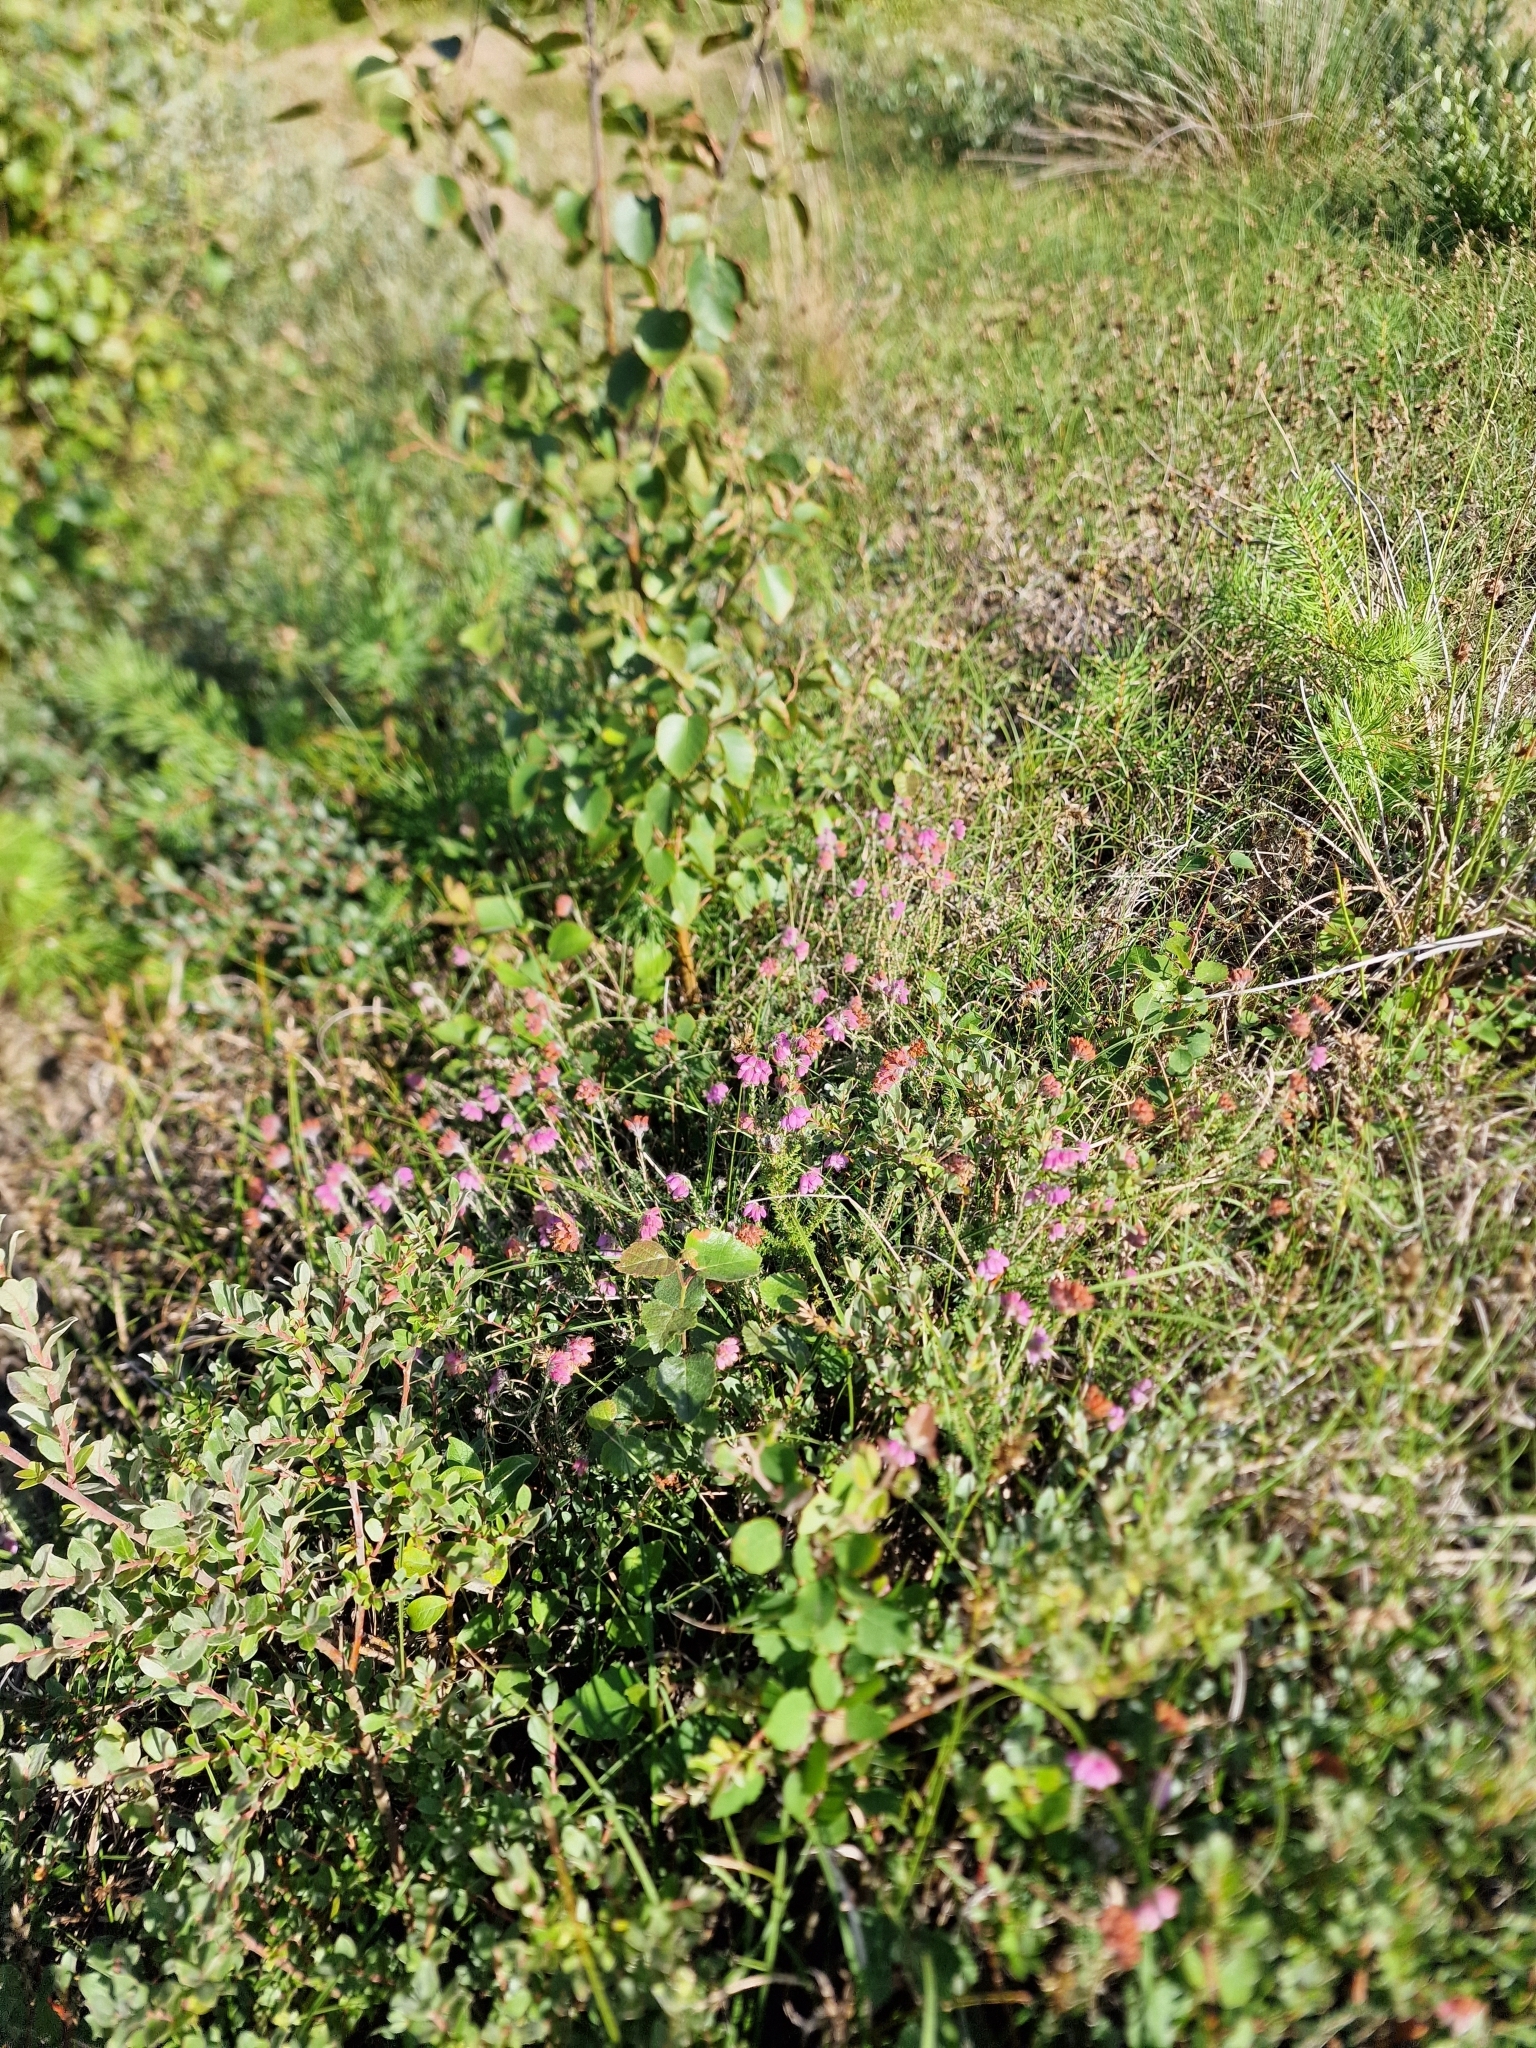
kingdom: Plantae
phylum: Tracheophyta
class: Magnoliopsida
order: Ericales
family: Ericaceae
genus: Erica
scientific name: Erica tetralix
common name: Cross-leaved heath
